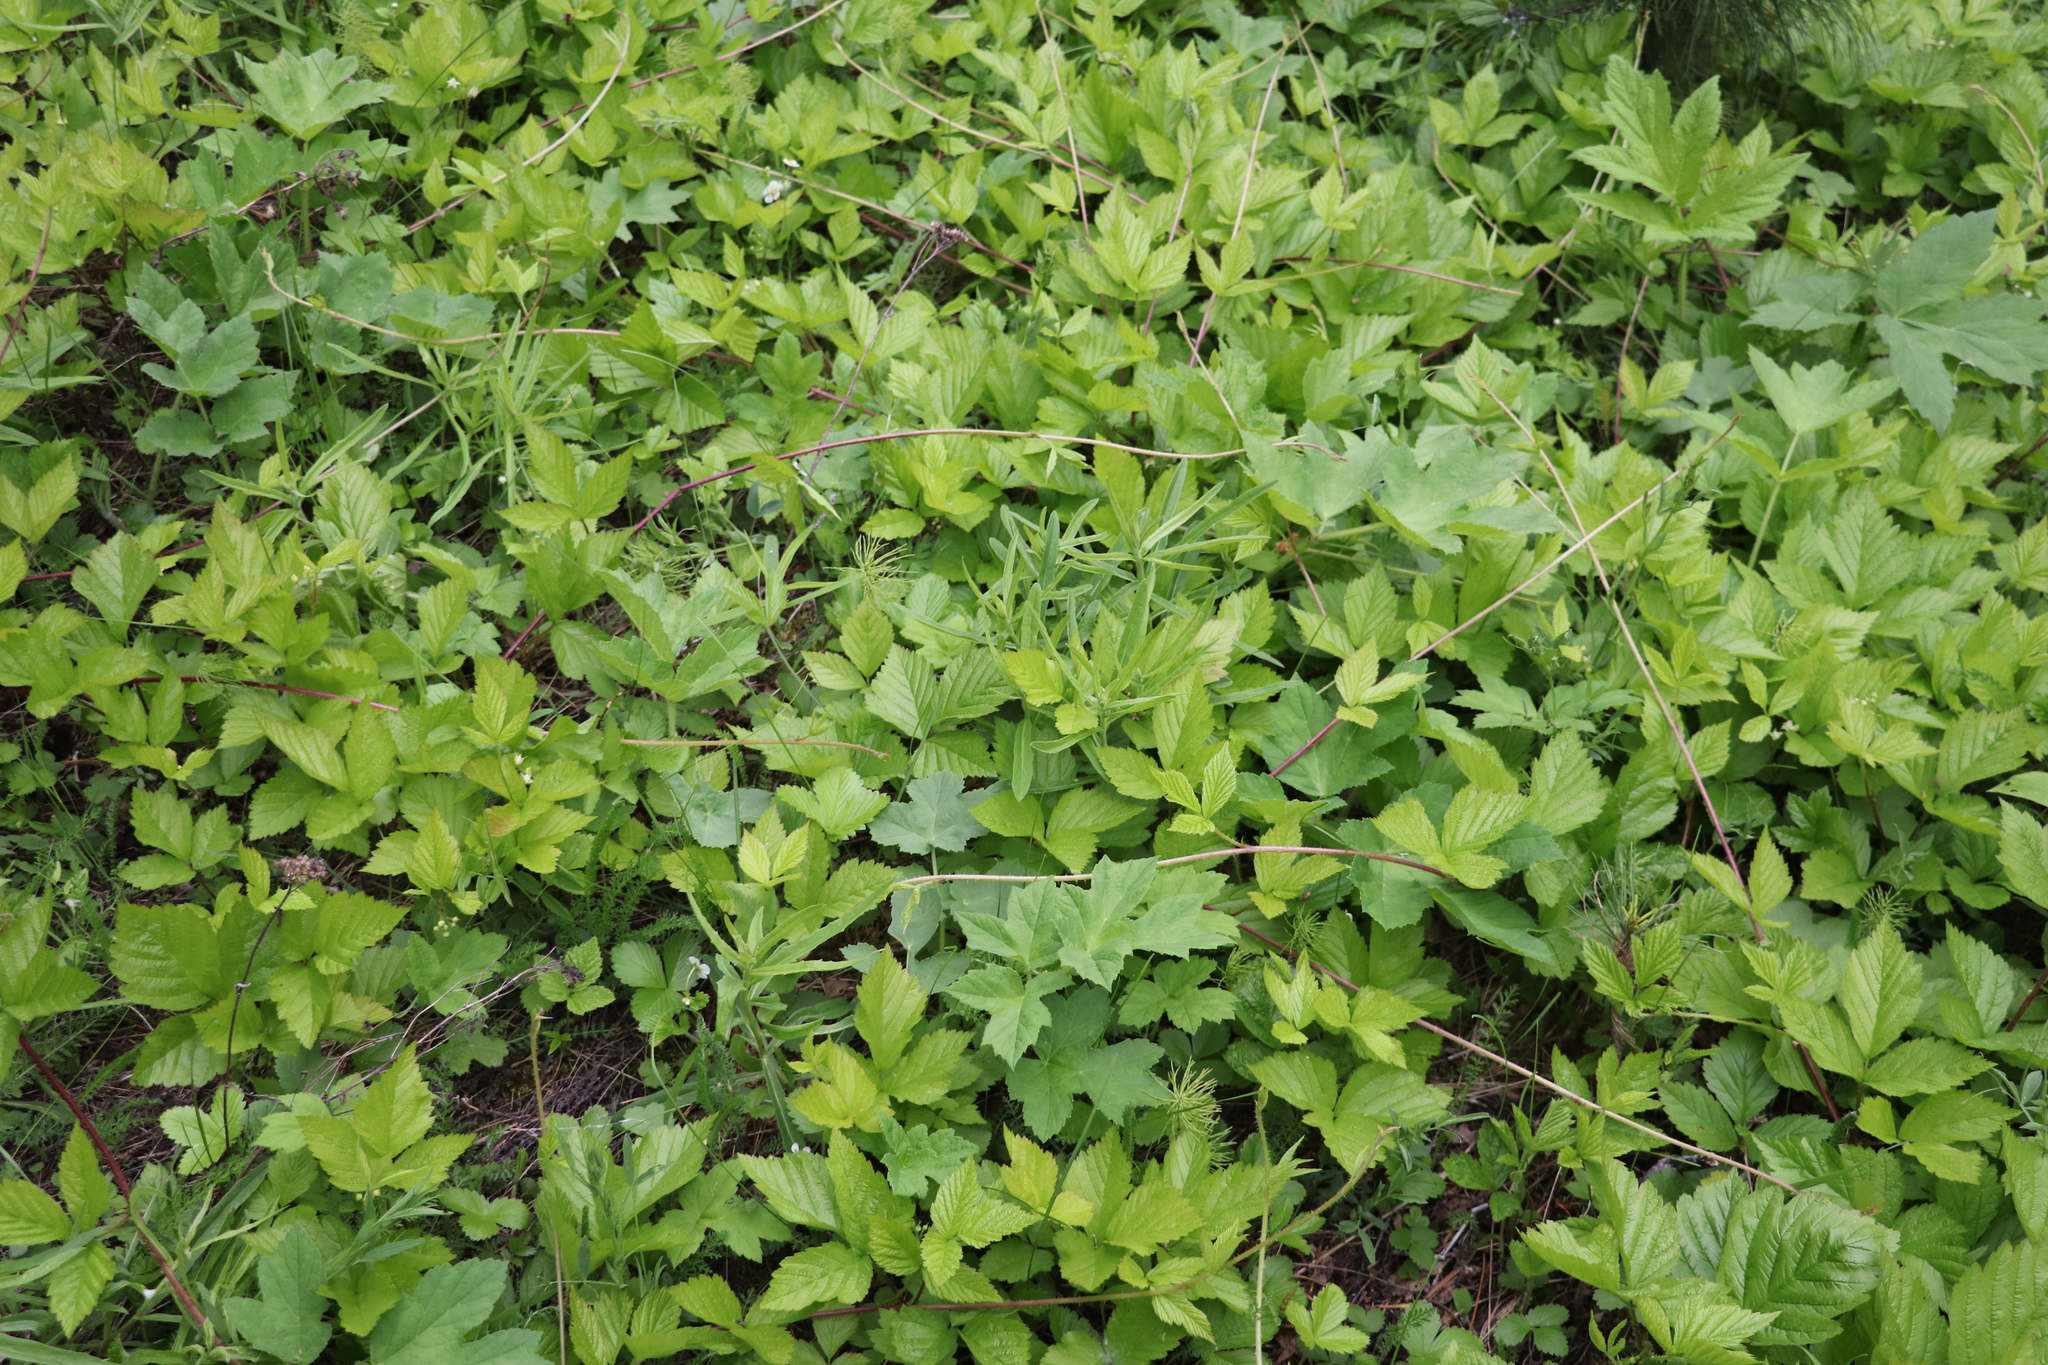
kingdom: Plantae
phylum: Tracheophyta
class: Magnoliopsida
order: Rosales
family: Rosaceae
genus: Rubus
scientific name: Rubus saxatilis
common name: Stone bramble
